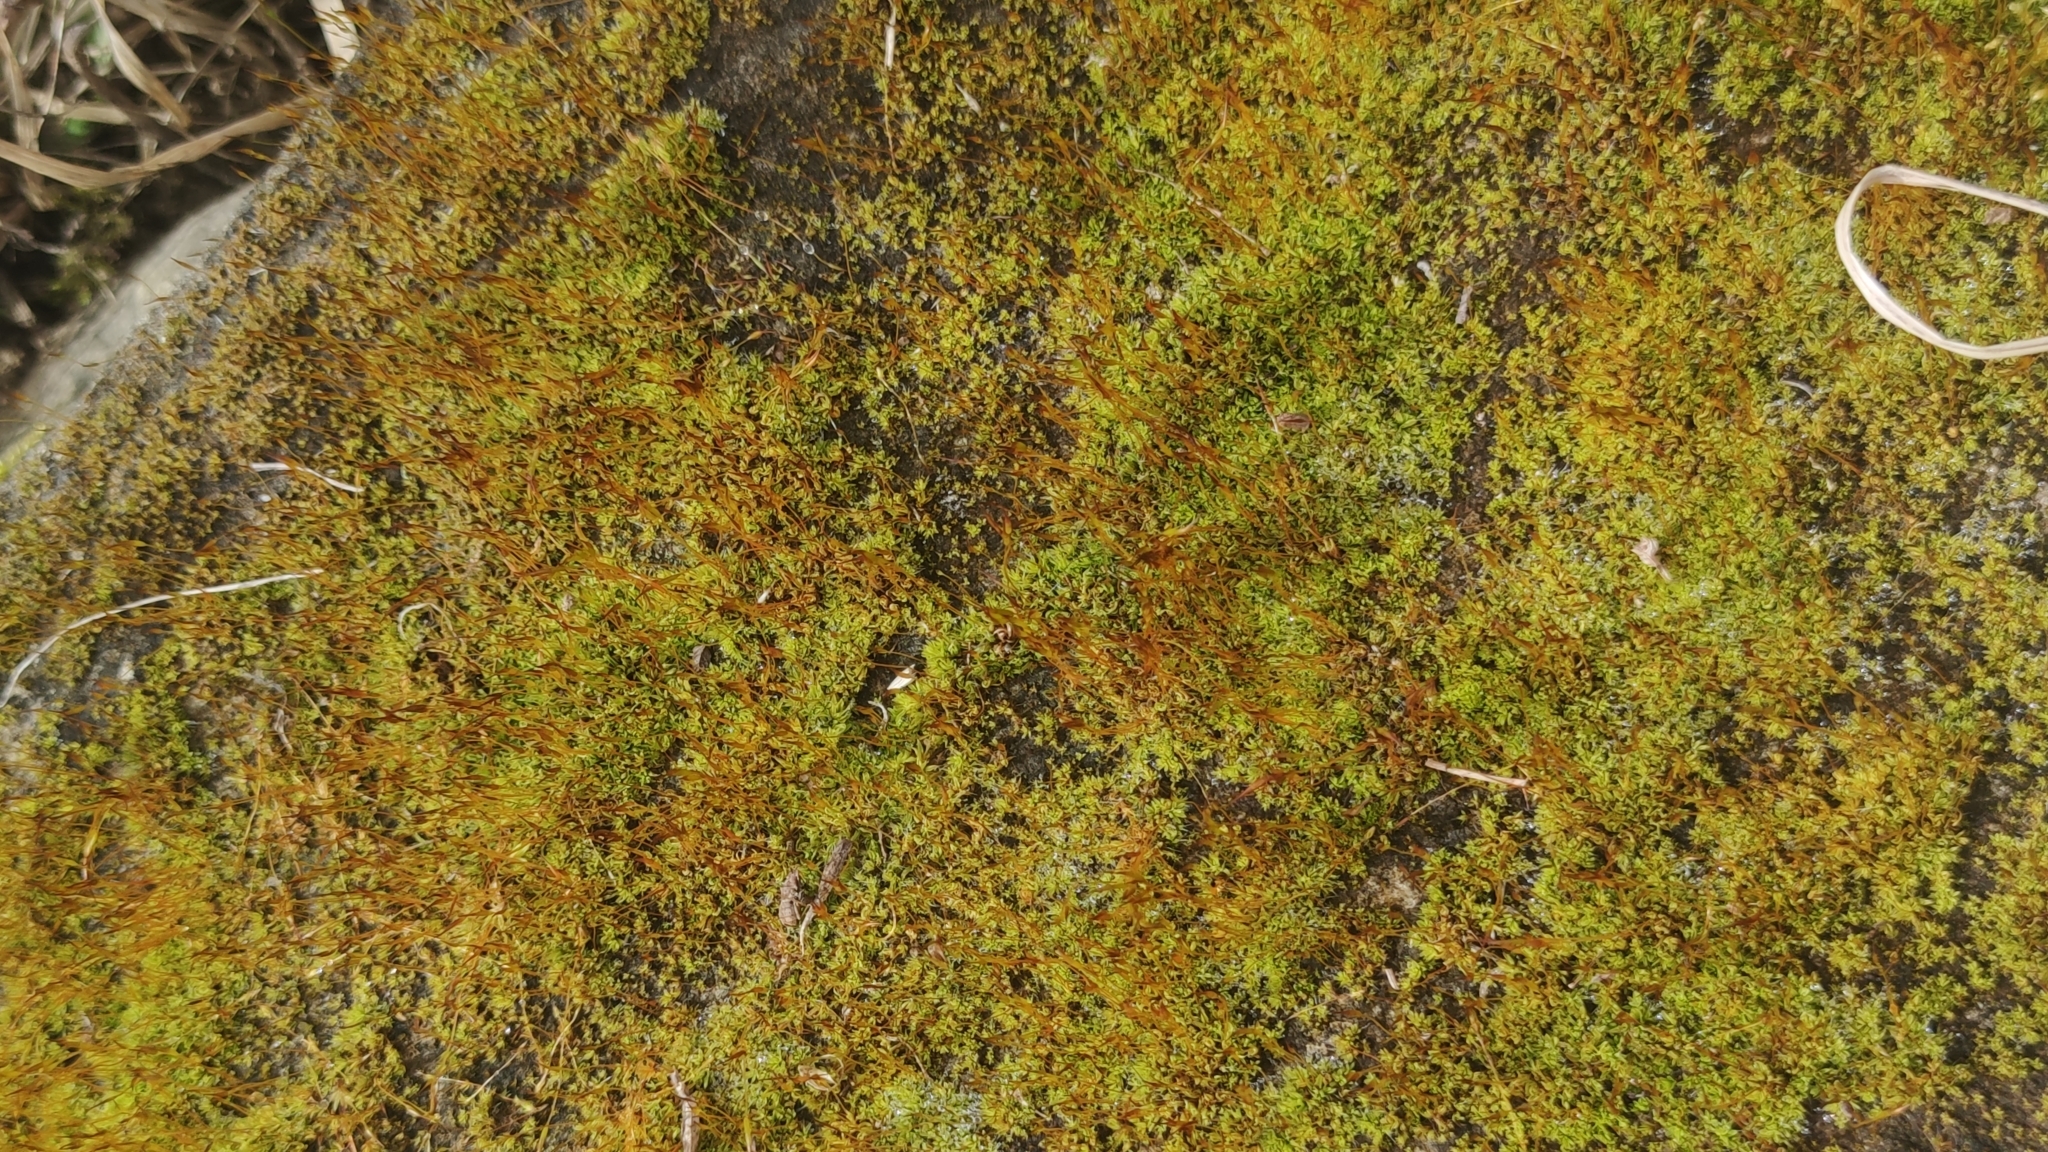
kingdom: Plantae
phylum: Bryophyta
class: Bryopsida
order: Pottiales
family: Pottiaceae
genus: Tortula
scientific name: Tortula muralis
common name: Wall screw-moss
